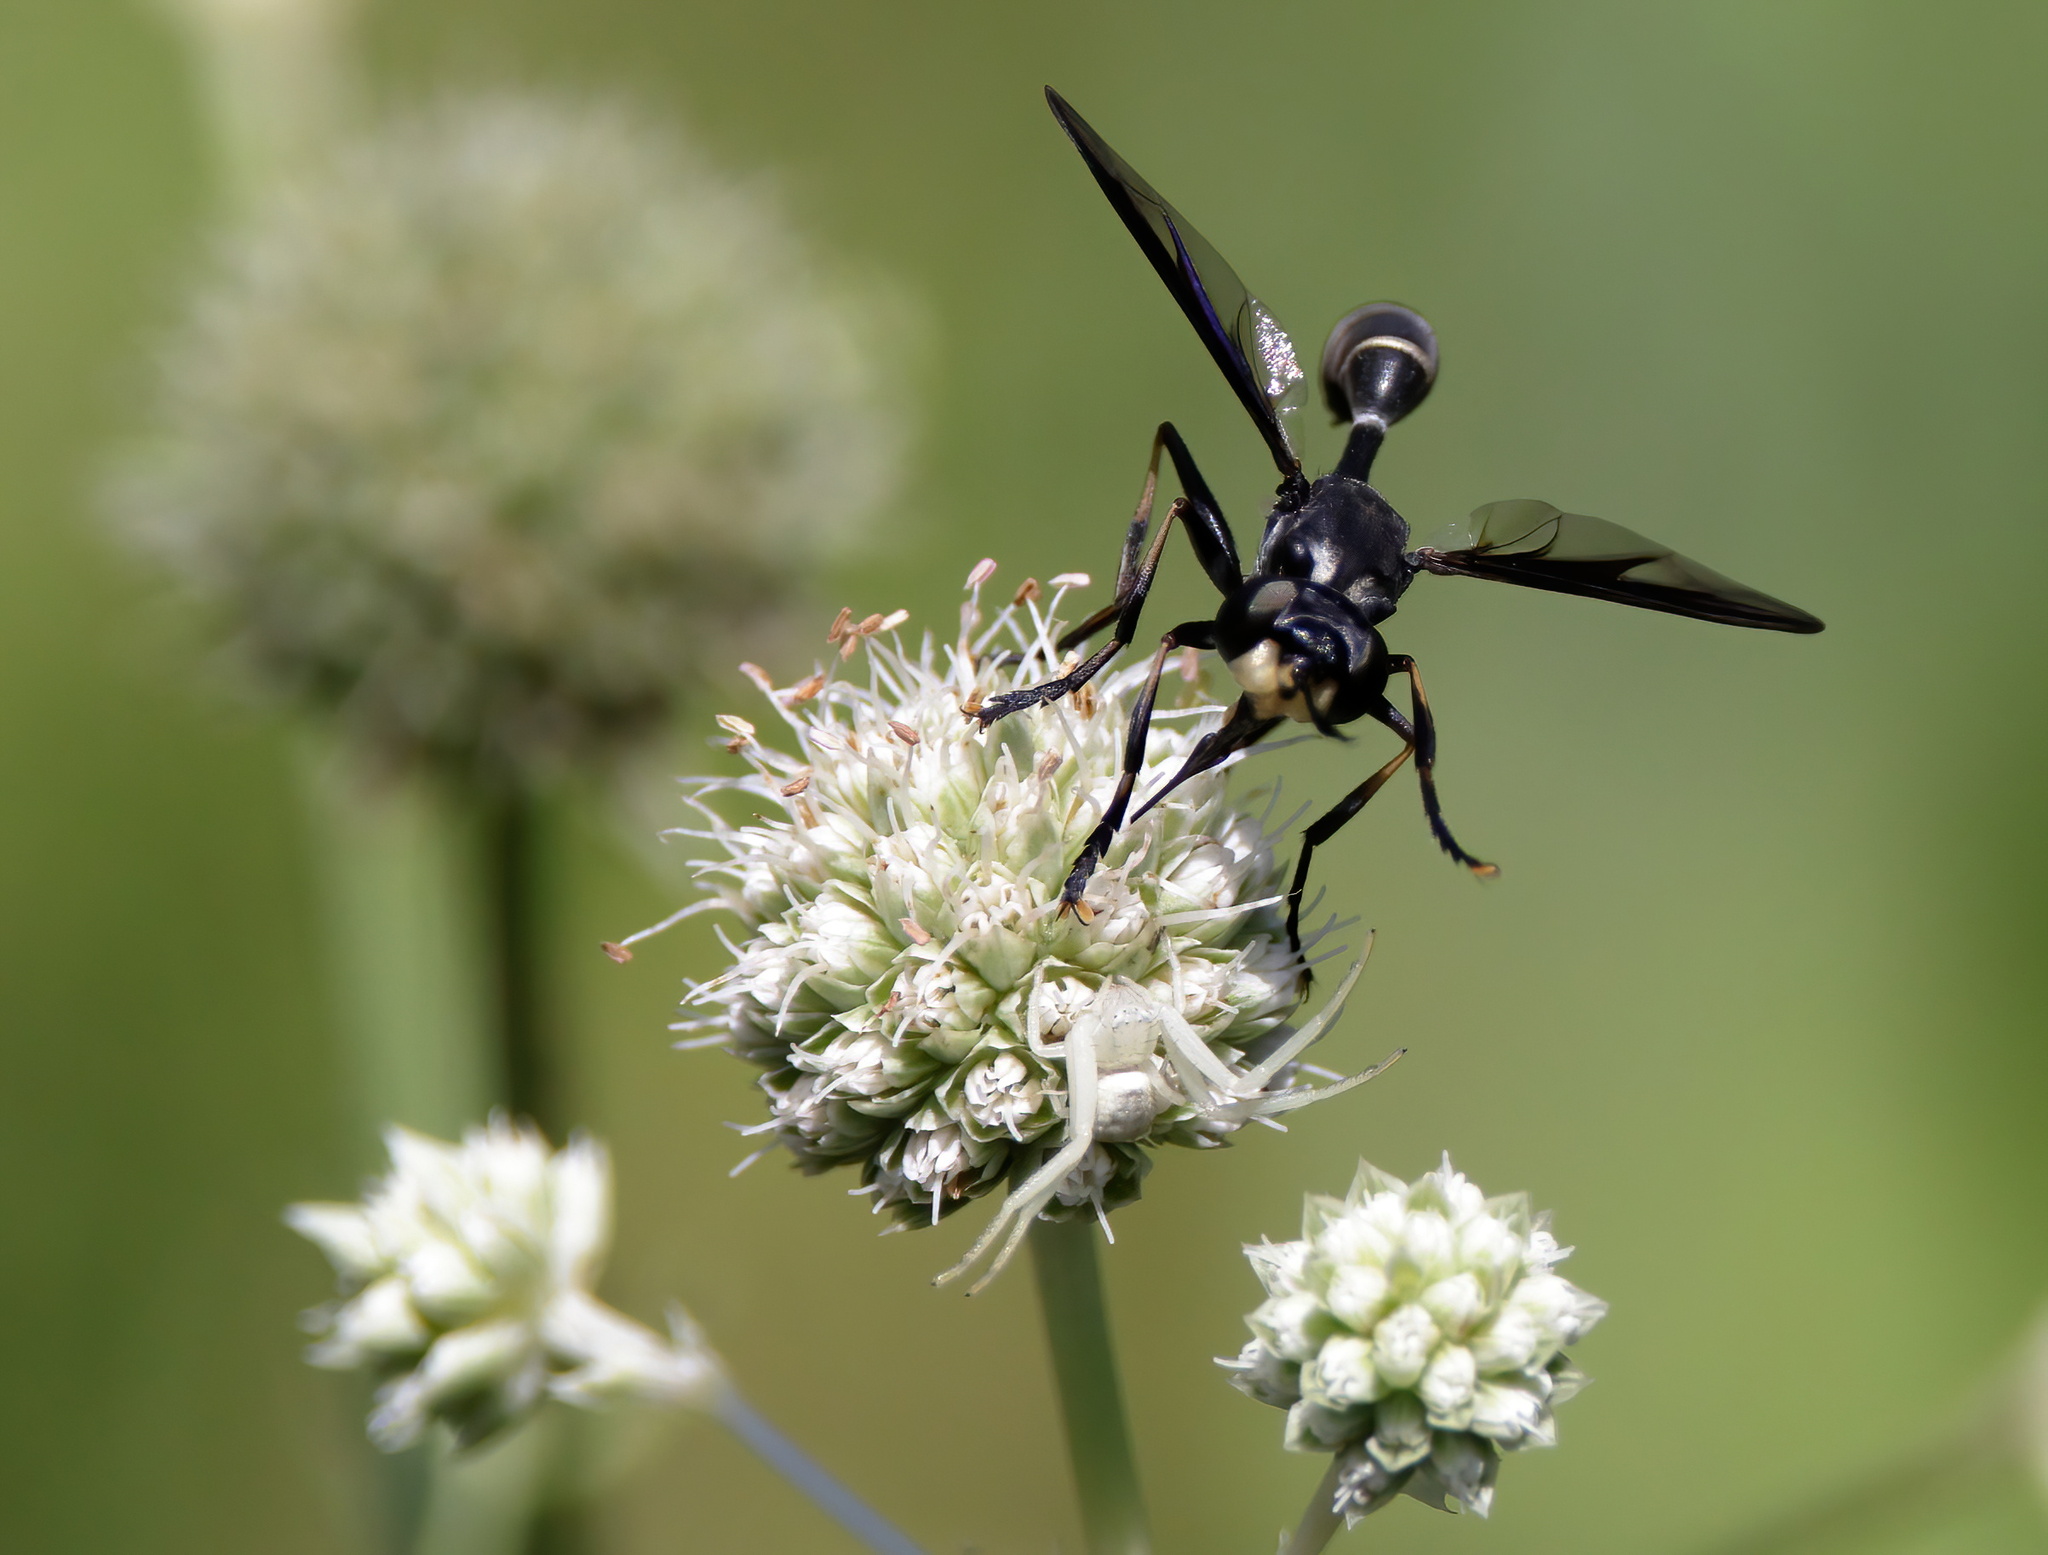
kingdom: Animalia
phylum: Arthropoda
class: Insecta
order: Diptera
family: Conopidae
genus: Physoconops
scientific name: Physoconops bulbirostris
